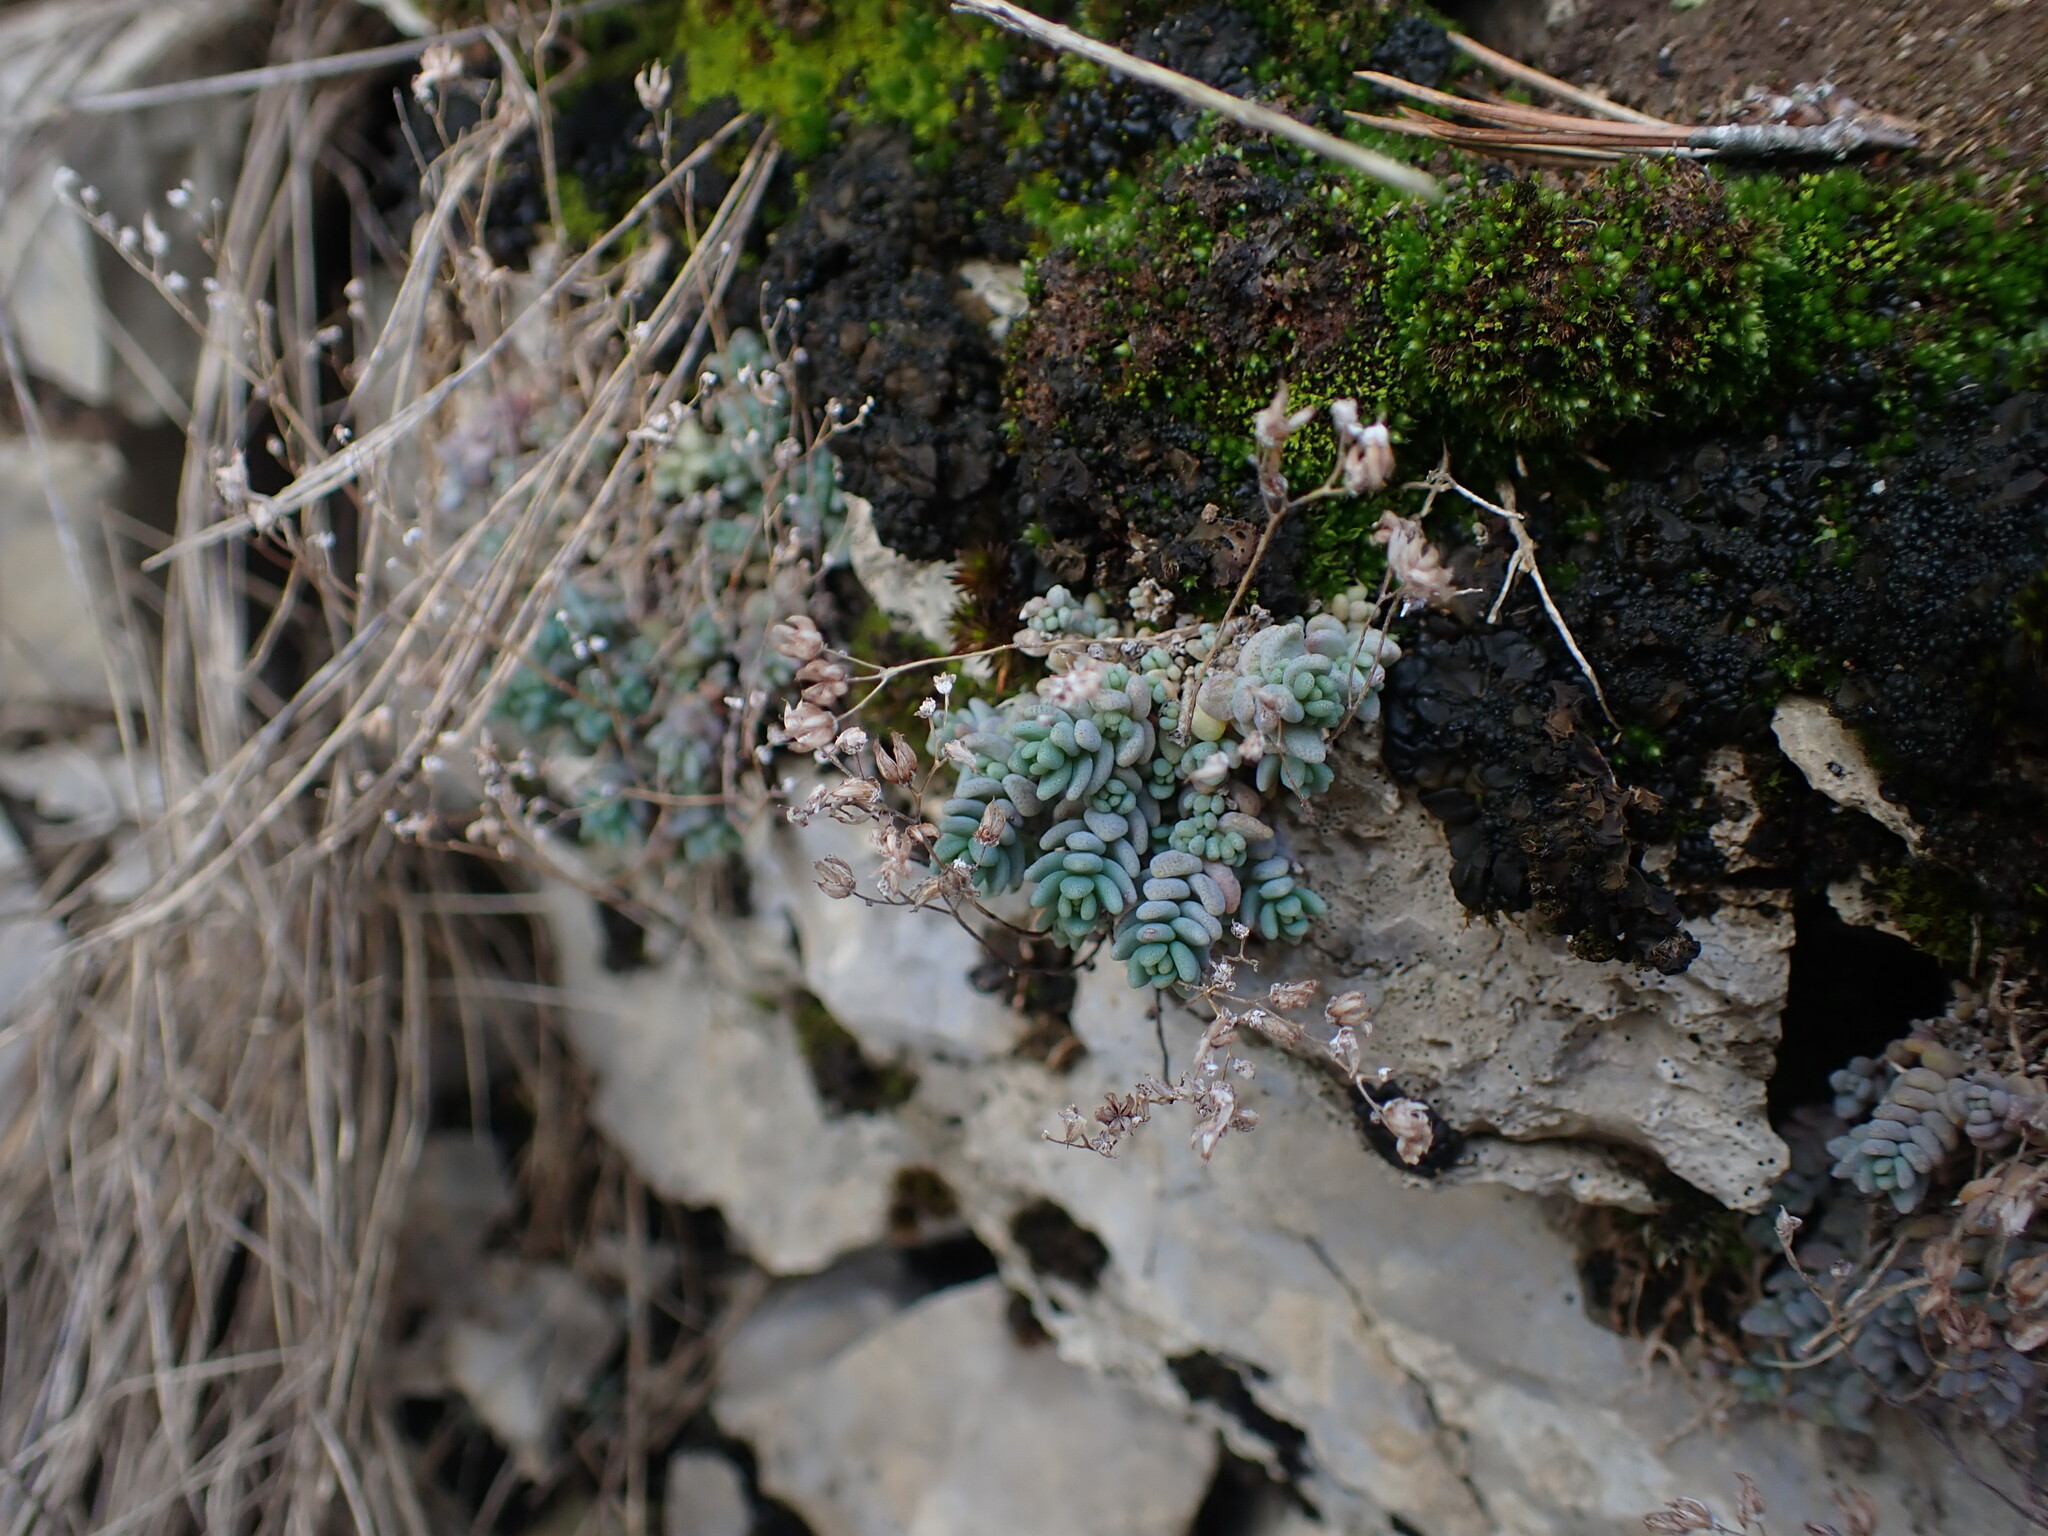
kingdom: Plantae
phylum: Tracheophyta
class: Magnoliopsida
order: Saxifragales
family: Crassulaceae
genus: Sedum
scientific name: Sedum dasyphyllum
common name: Thick-leaf stonecrop
